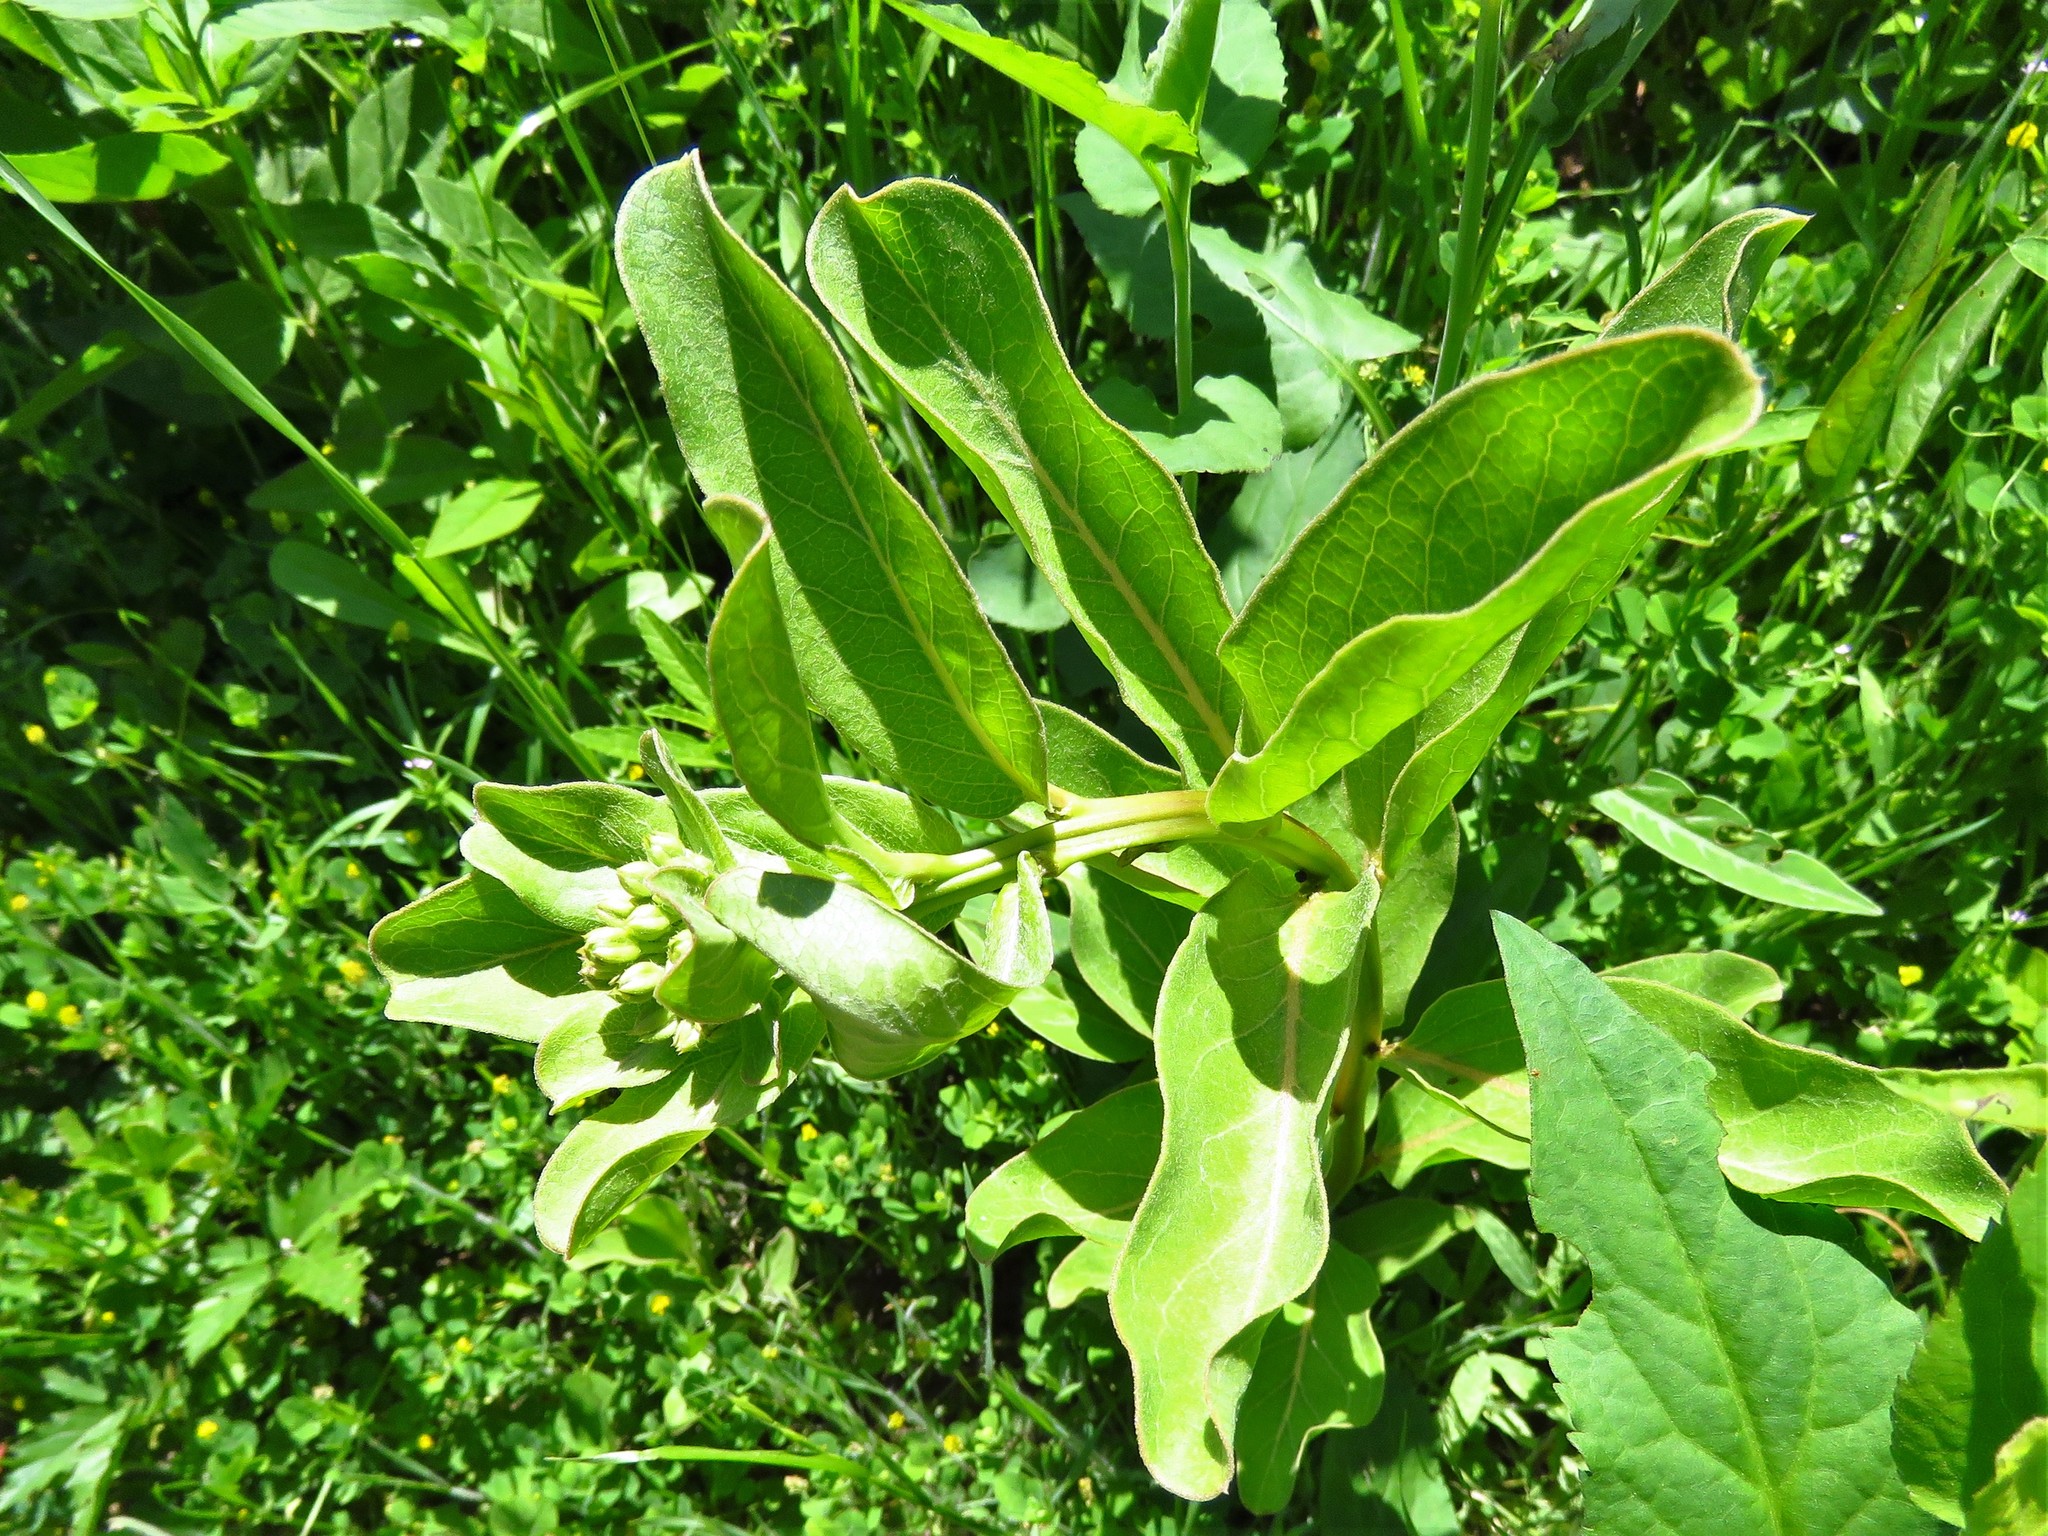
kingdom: Plantae
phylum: Tracheophyta
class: Magnoliopsida
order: Gentianales
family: Apocynaceae
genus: Asclepias
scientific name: Asclepias viridis
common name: Antelope-horns
